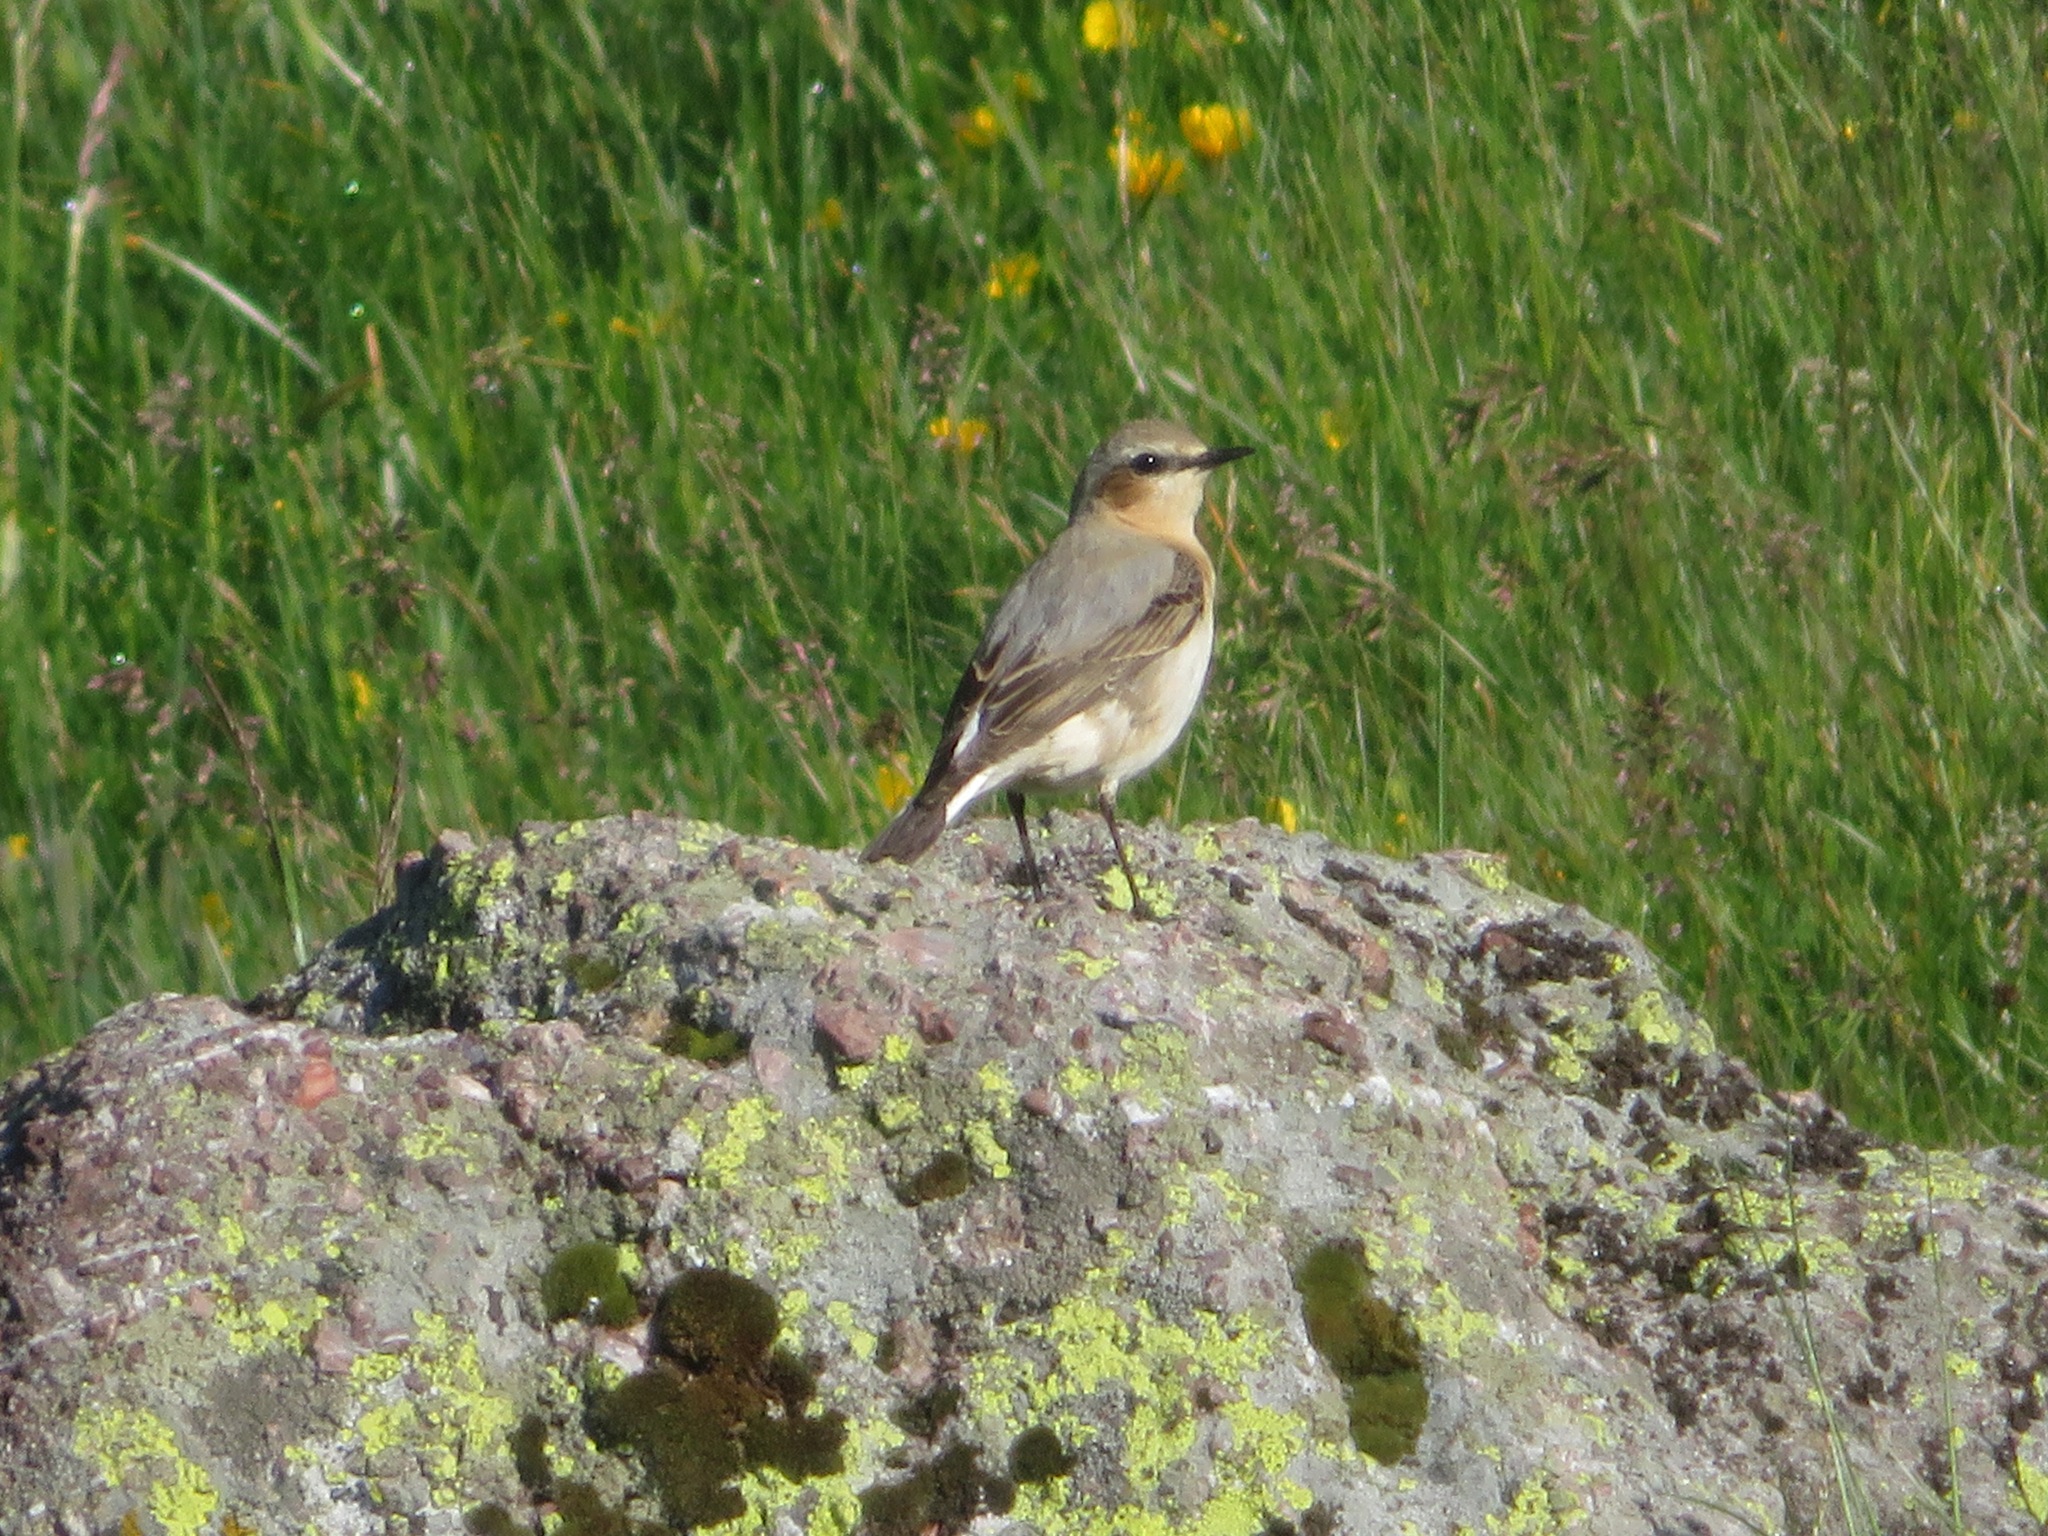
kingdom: Animalia
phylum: Chordata
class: Aves
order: Passeriformes
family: Muscicapidae
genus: Oenanthe
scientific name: Oenanthe oenanthe
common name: Northern wheatear
